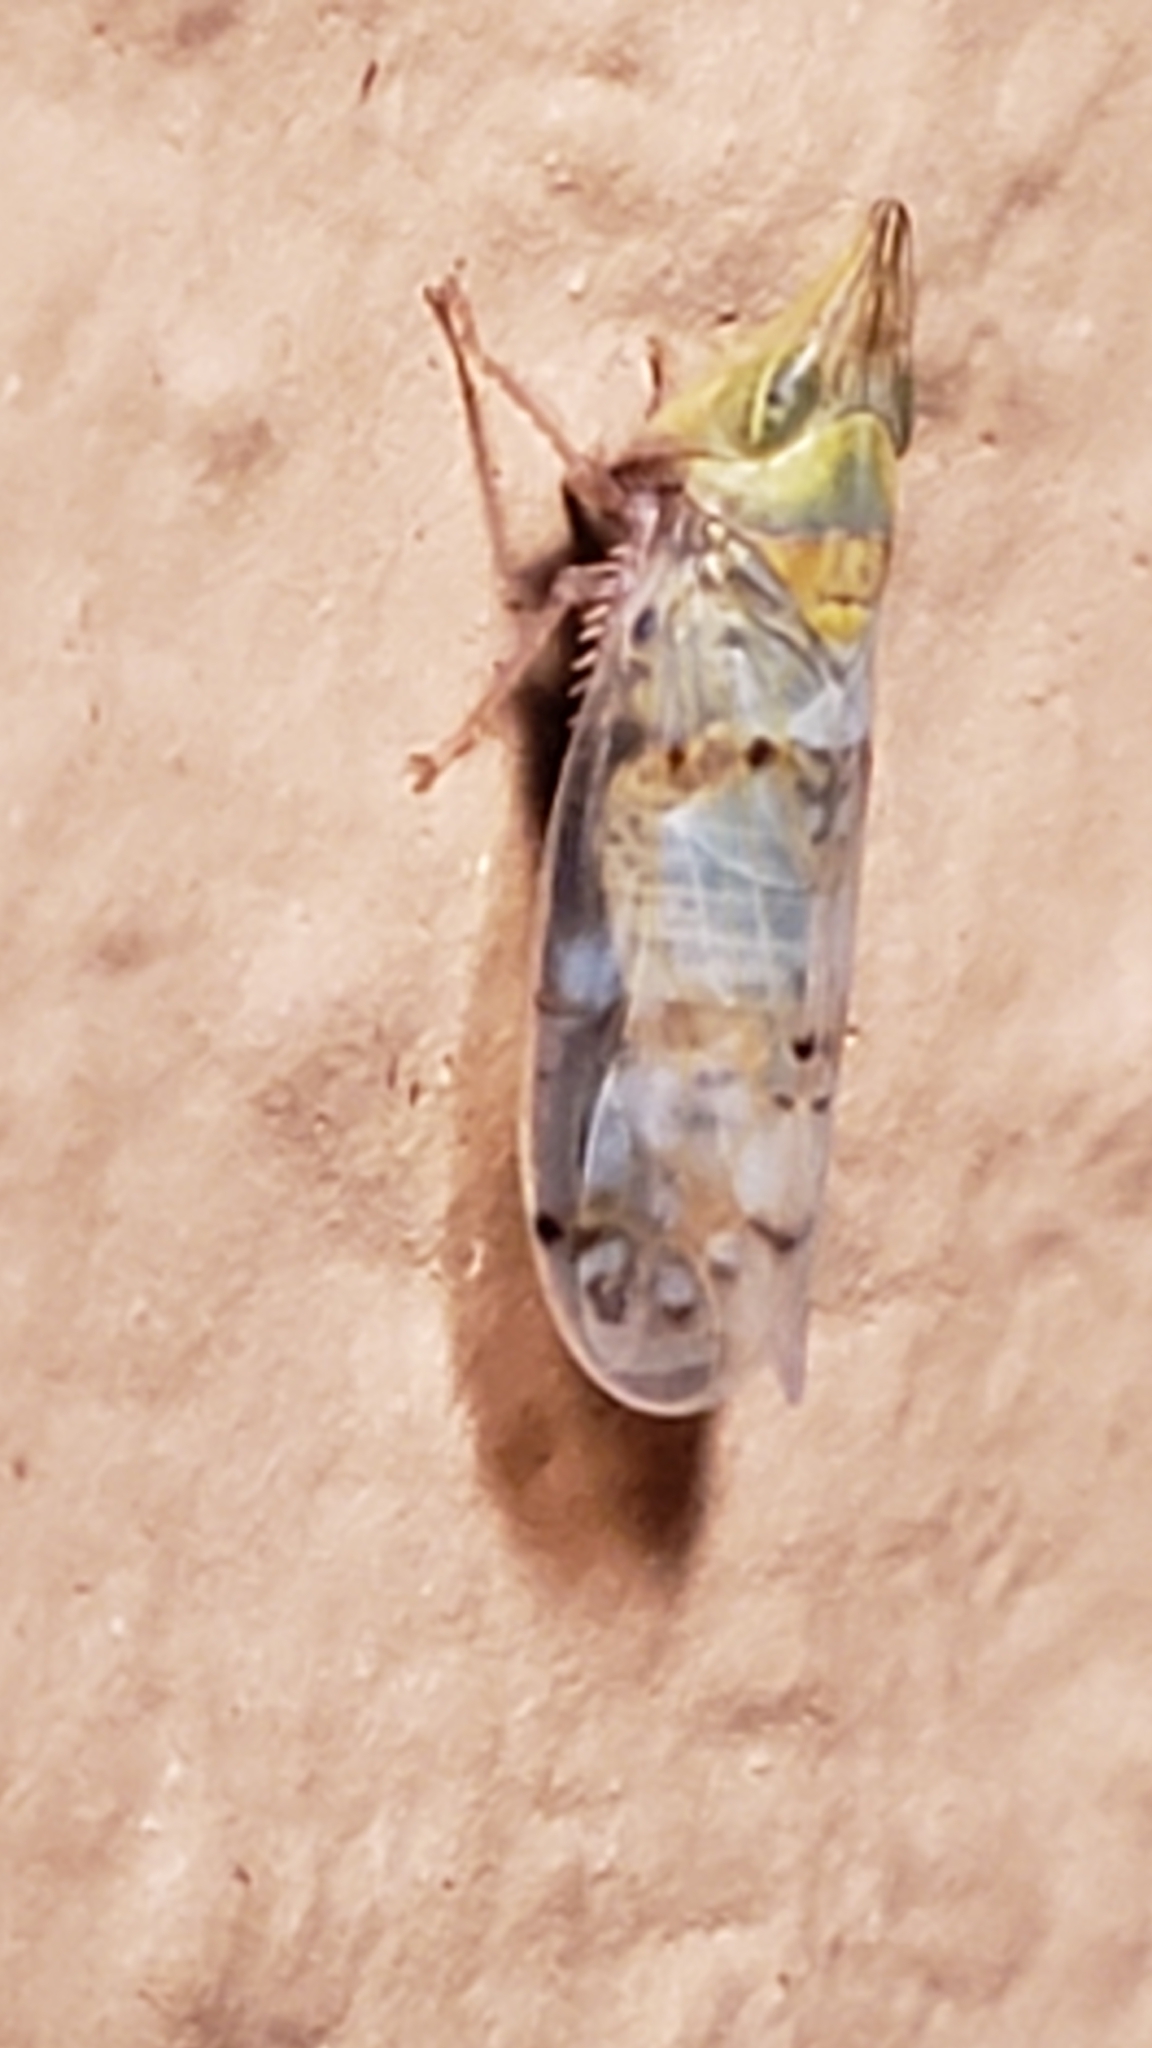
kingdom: Animalia
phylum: Arthropoda
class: Insecta
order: Hemiptera
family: Cicadellidae
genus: Japananus
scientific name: Japananus hyalinus
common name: The japanese maple leafhopper
